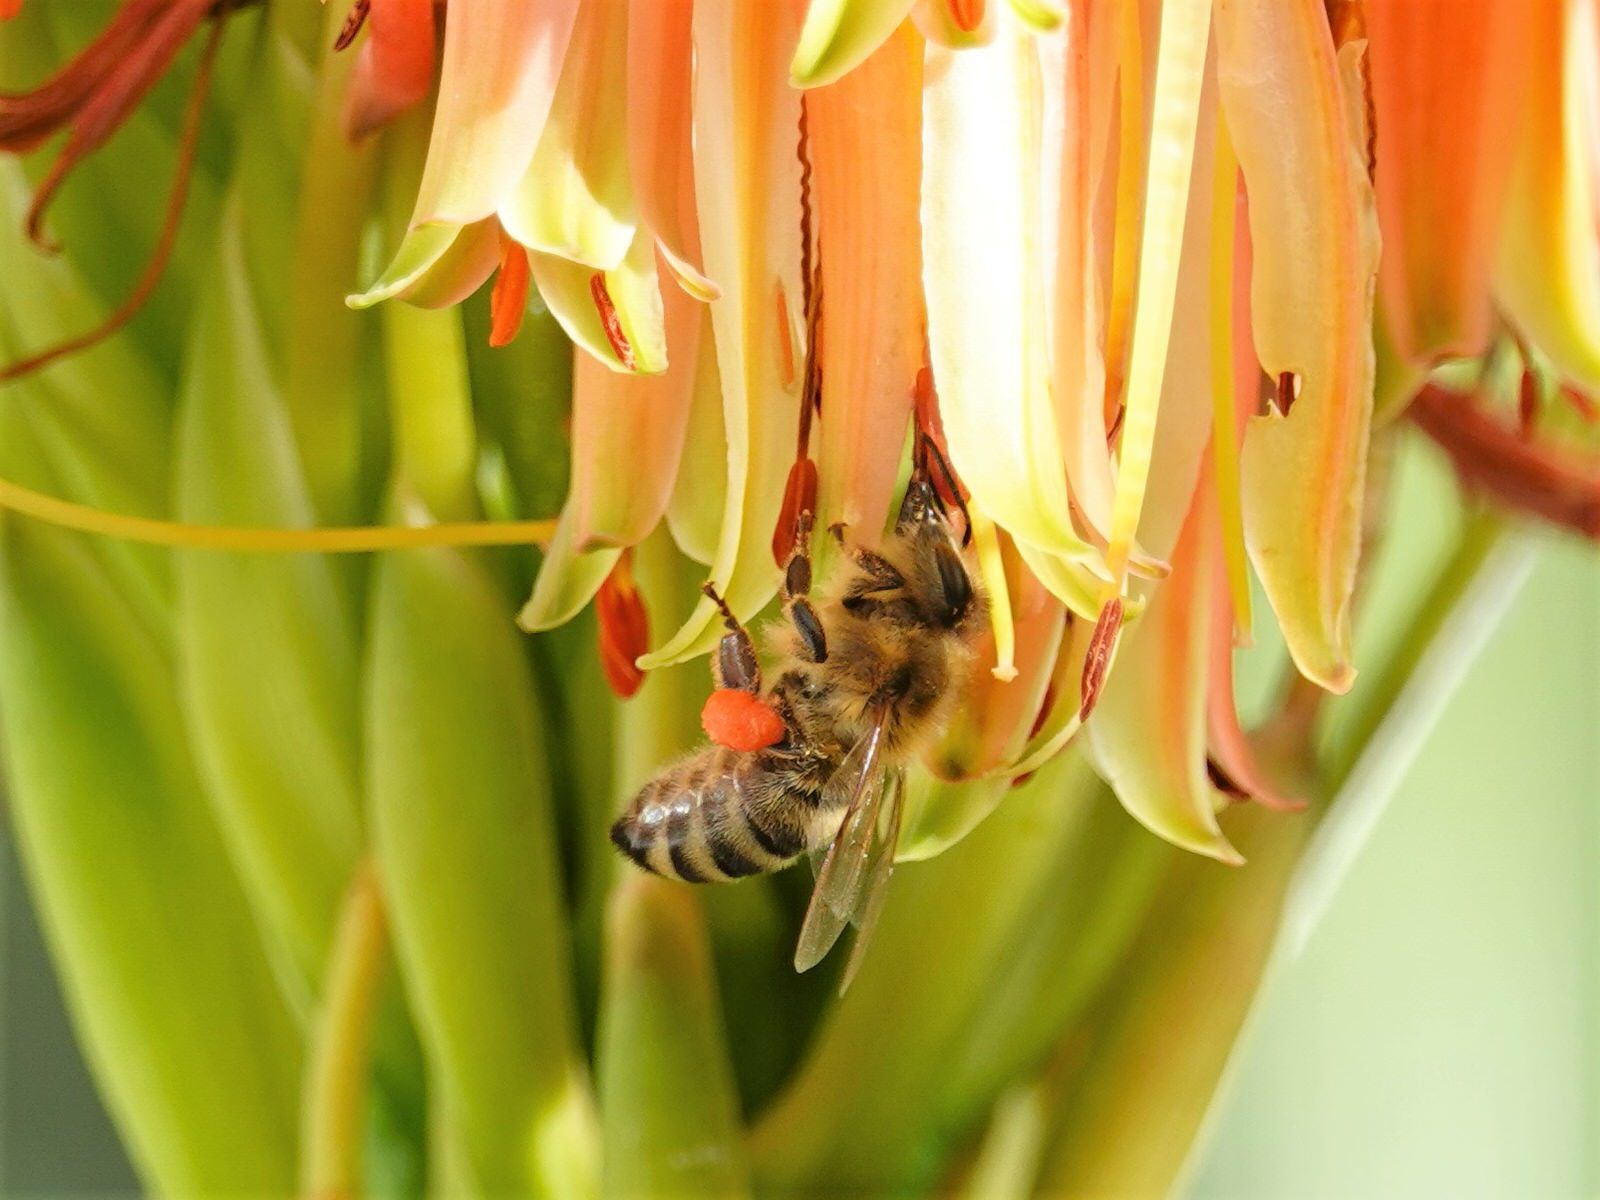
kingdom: Animalia
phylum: Arthropoda
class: Insecta
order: Hymenoptera
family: Apidae
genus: Apis
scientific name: Apis mellifera
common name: Honey bee
